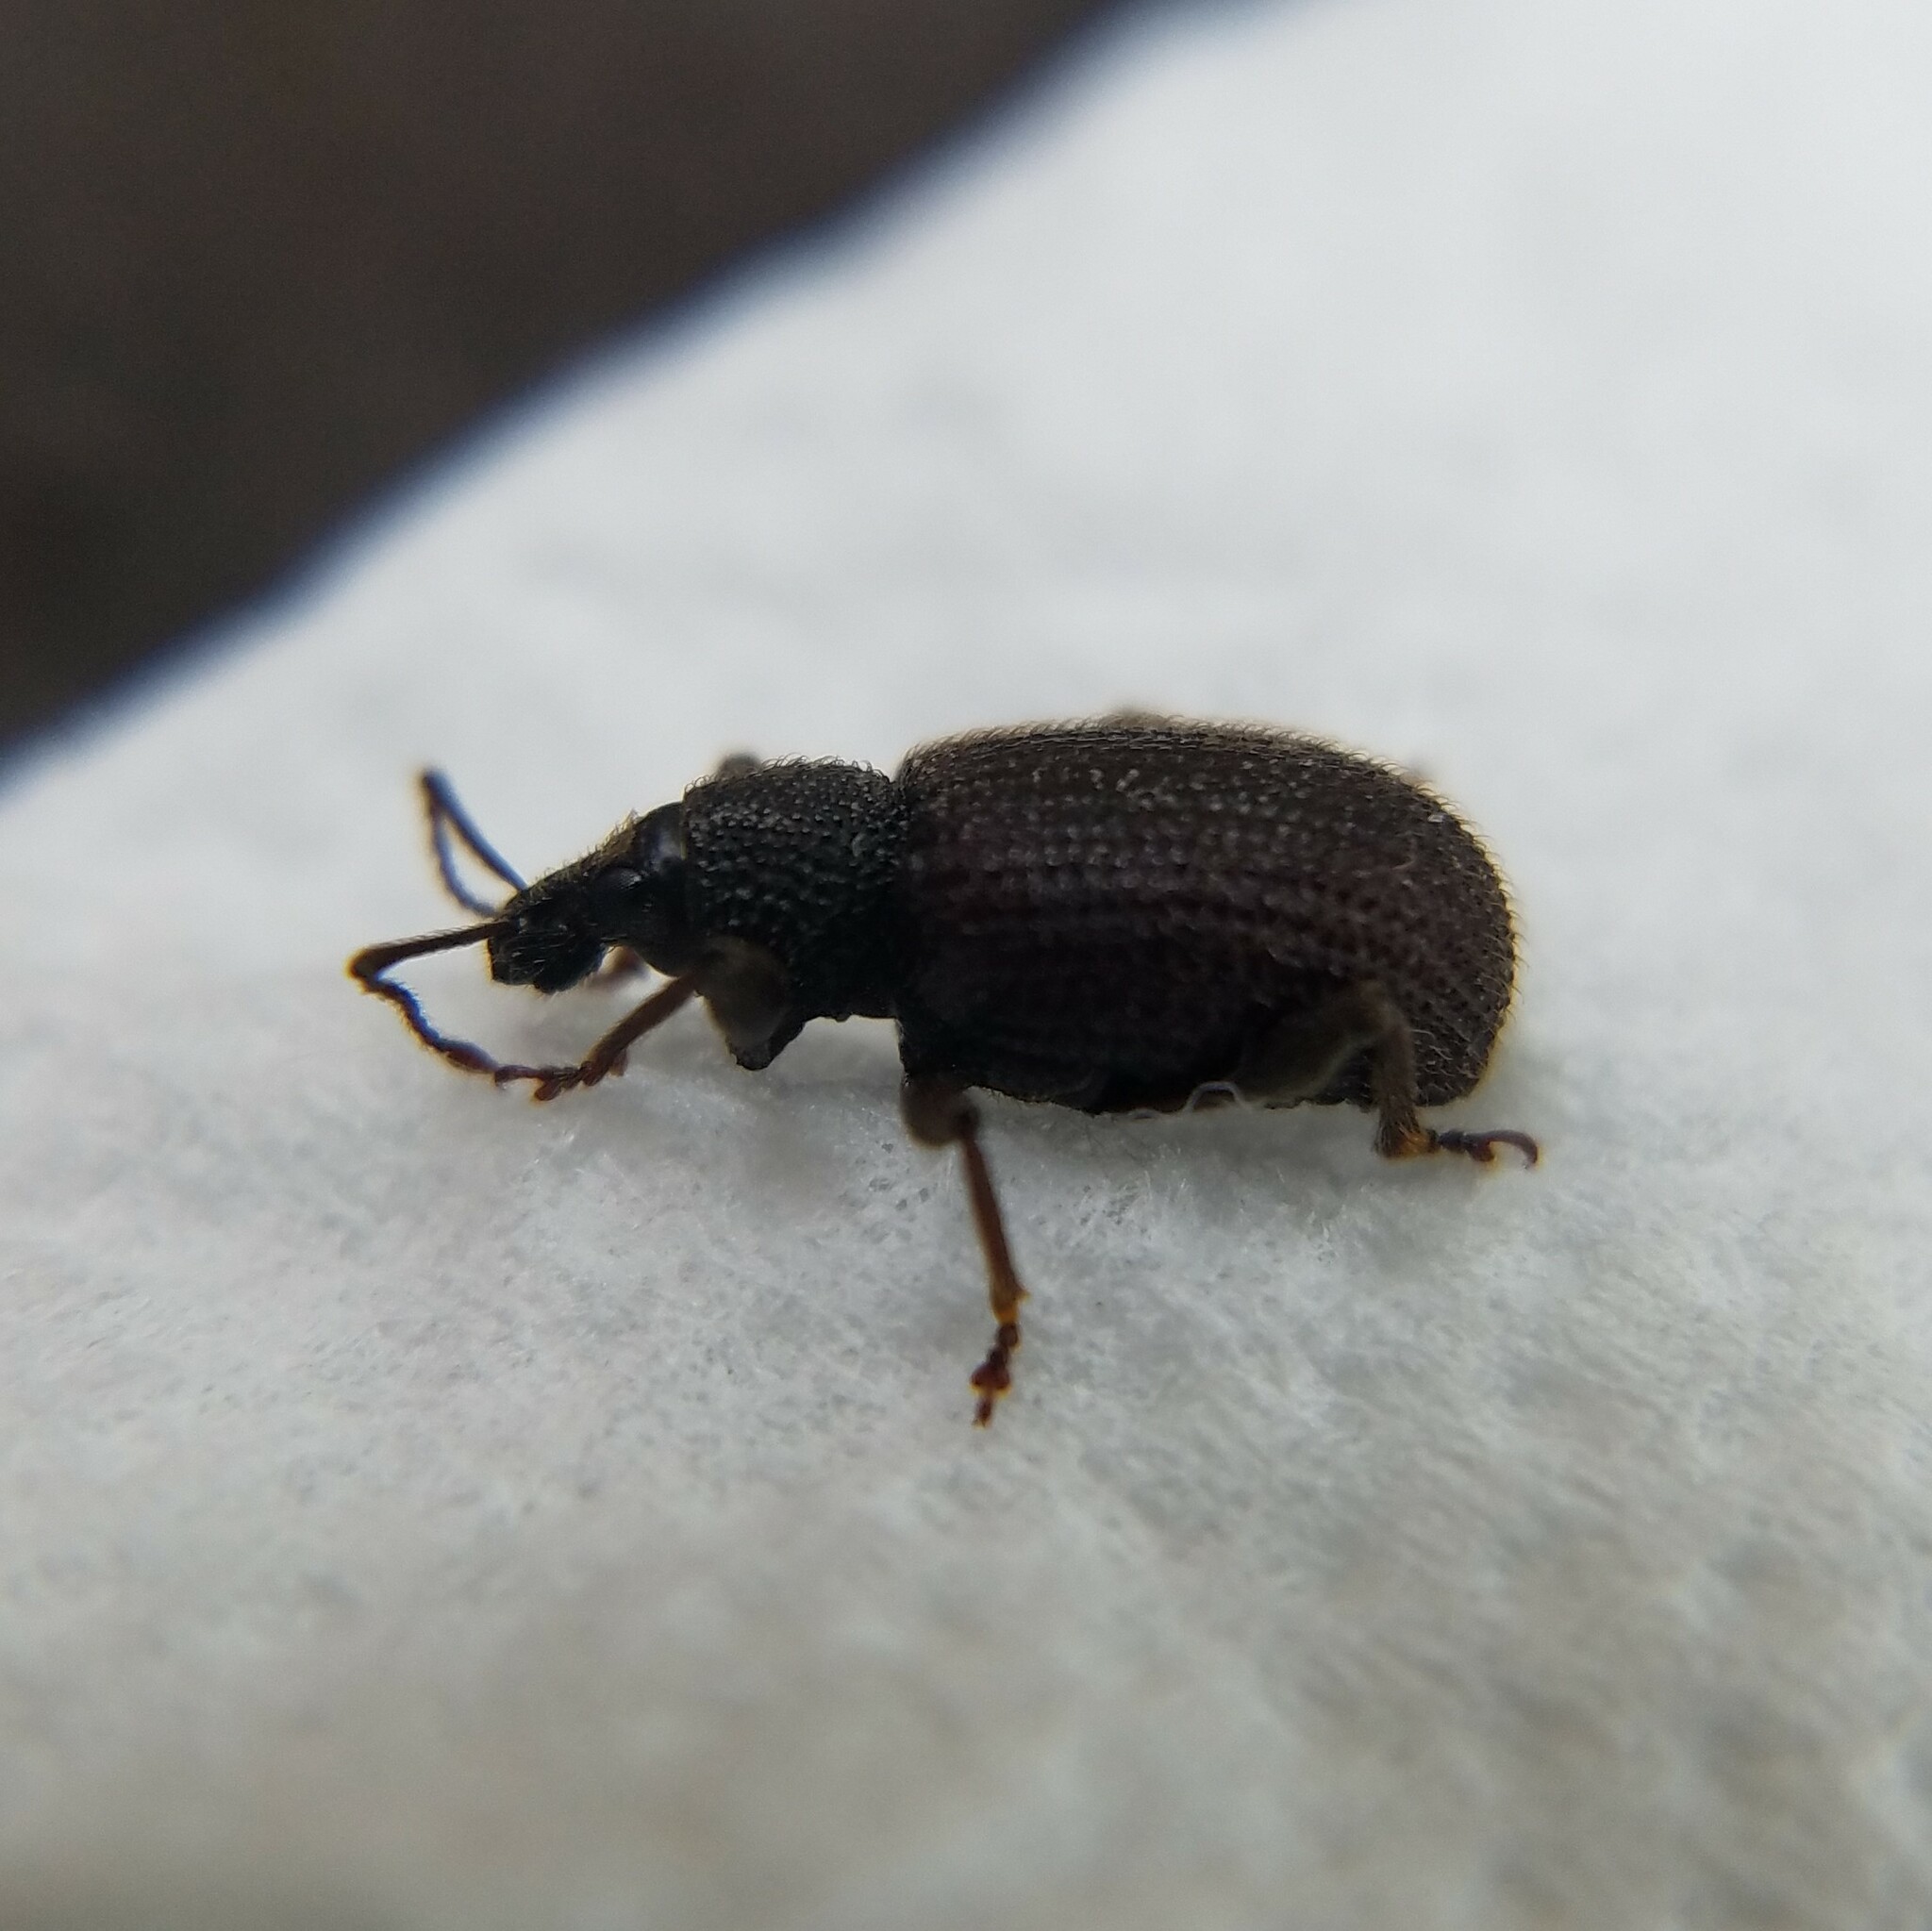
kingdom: Animalia
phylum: Arthropoda
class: Insecta
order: Coleoptera
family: Curculionidae
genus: Otiorhynchus
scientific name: Otiorhynchus rugosostriatus
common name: Weevil
